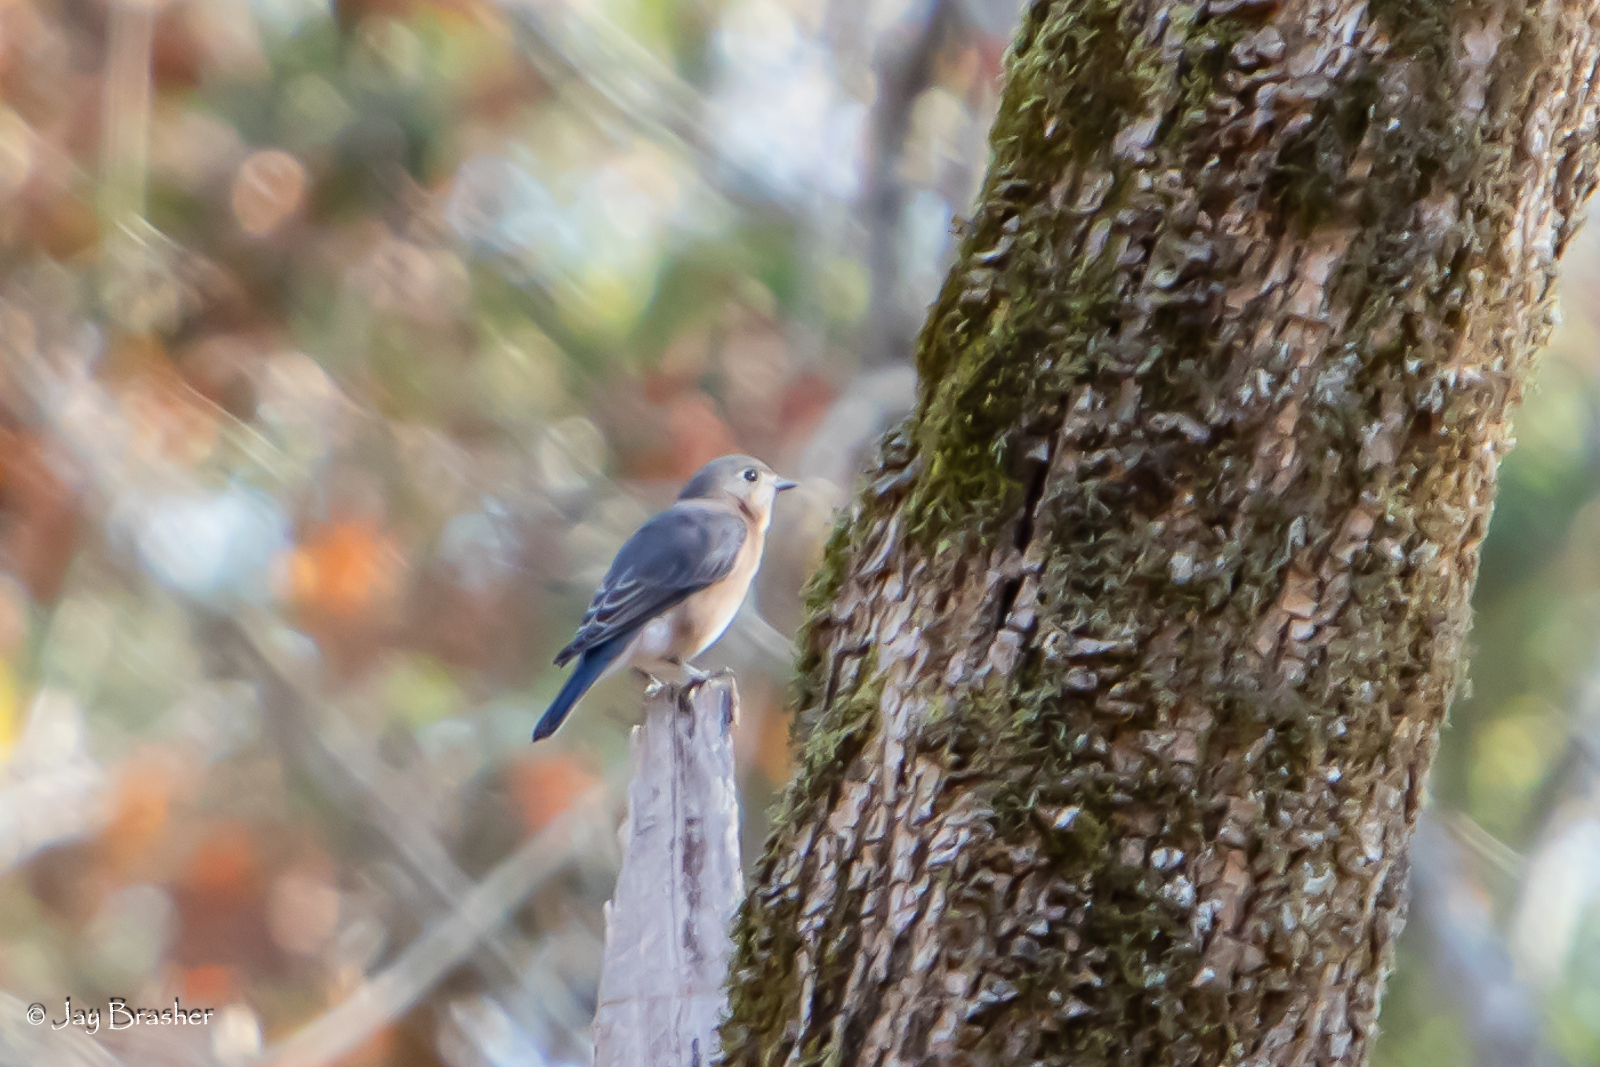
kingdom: Animalia
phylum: Chordata
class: Aves
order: Passeriformes
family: Turdidae
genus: Sialia
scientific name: Sialia sialis
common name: Eastern bluebird
